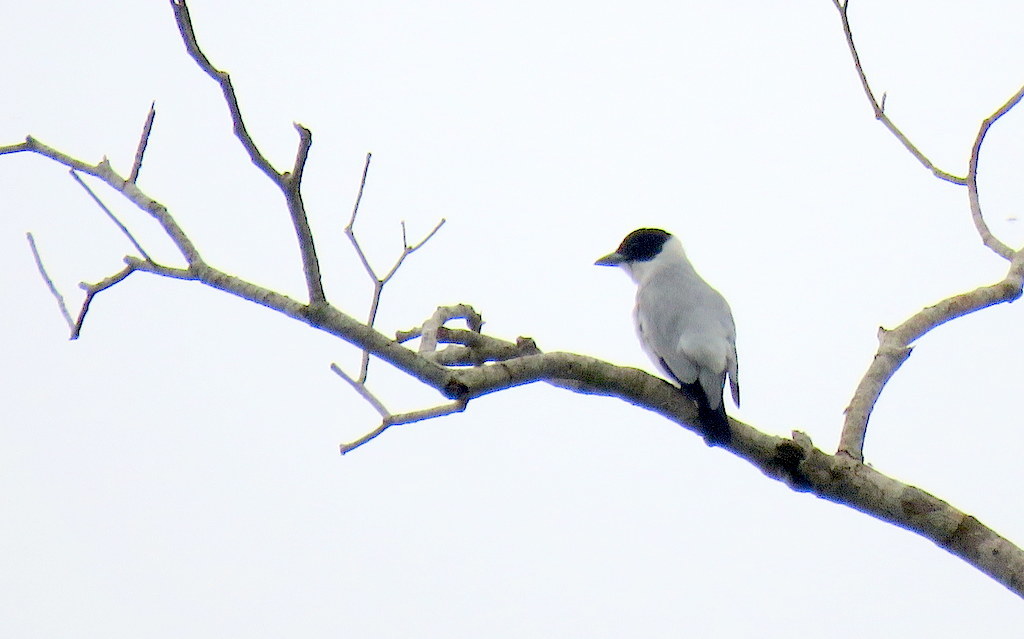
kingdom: Animalia
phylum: Chordata
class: Aves
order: Passeriformes
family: Cotingidae
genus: Tityra
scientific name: Tityra inquisitor
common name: Black-crowned tityra
